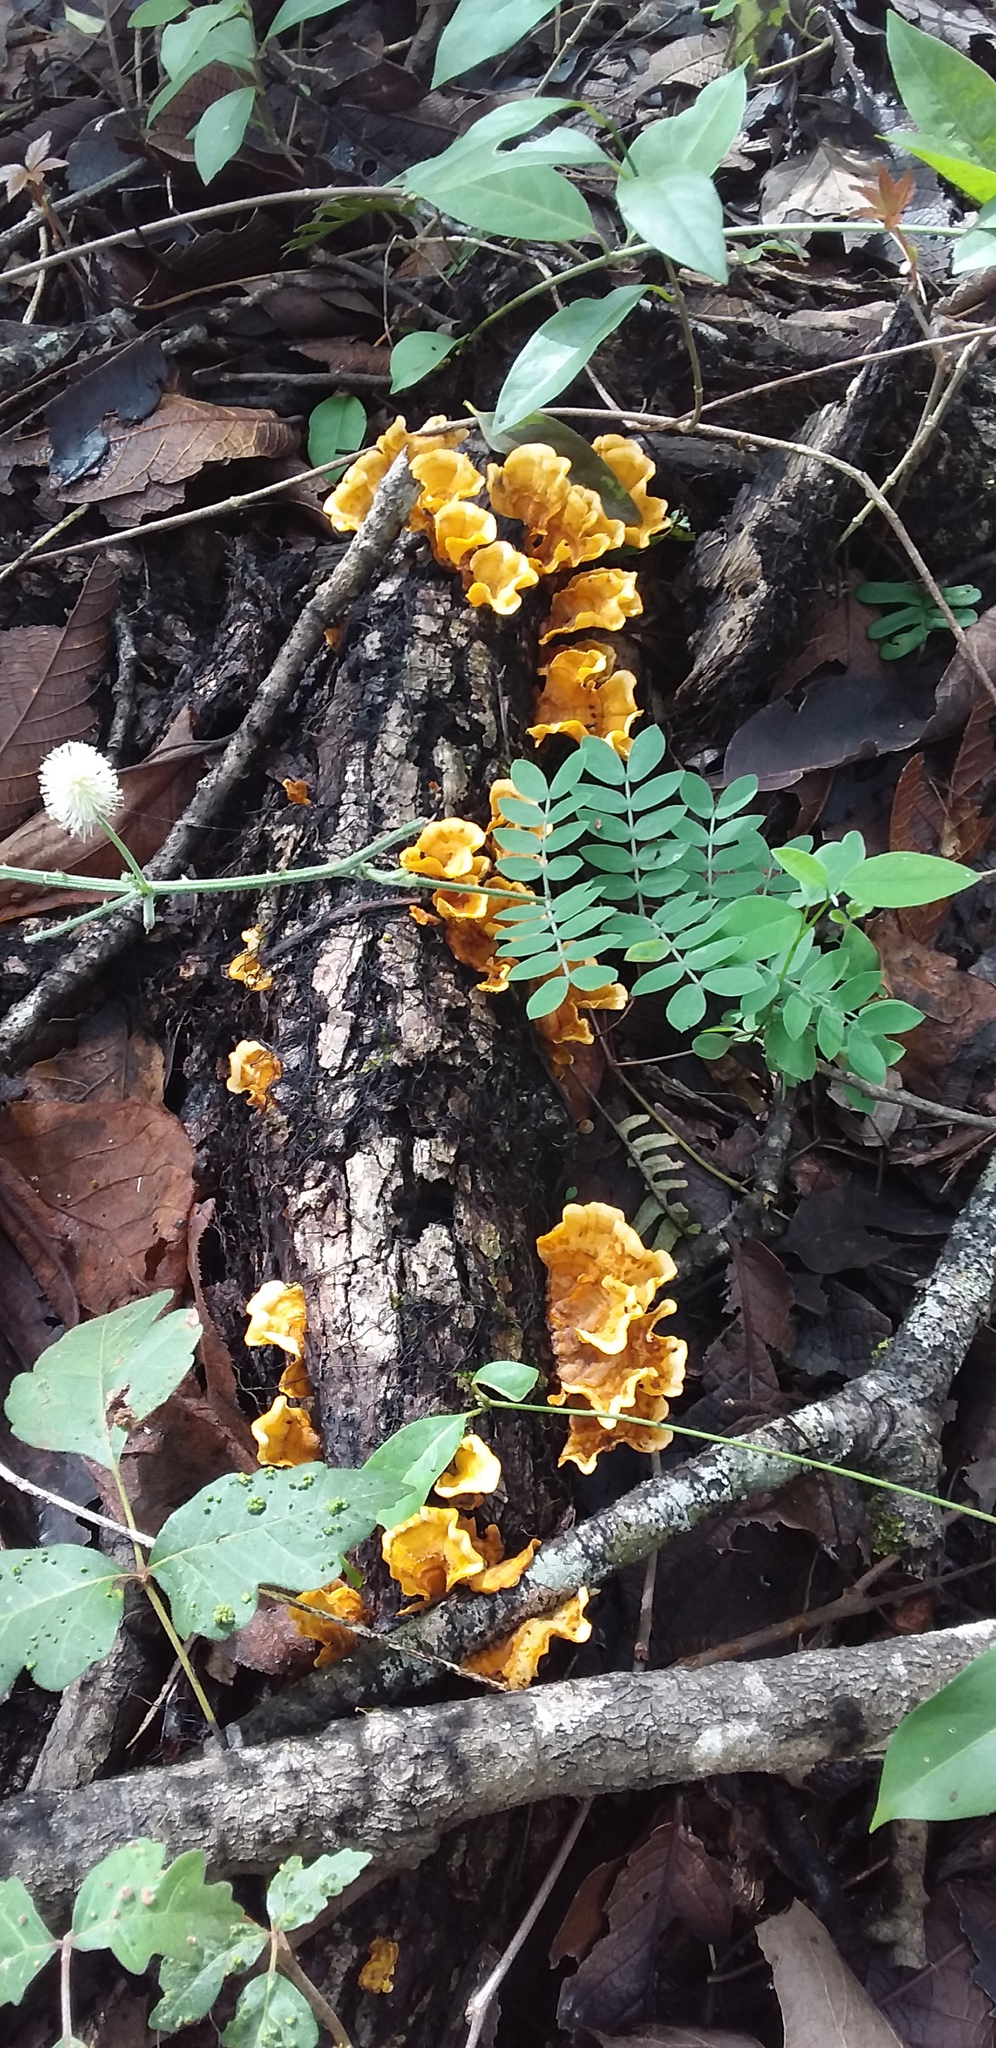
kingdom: Fungi
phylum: Basidiomycota
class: Agaricomycetes
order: Russulales
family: Stereaceae
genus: Stereum
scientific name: Stereum complicatum
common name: Crowded parchment
